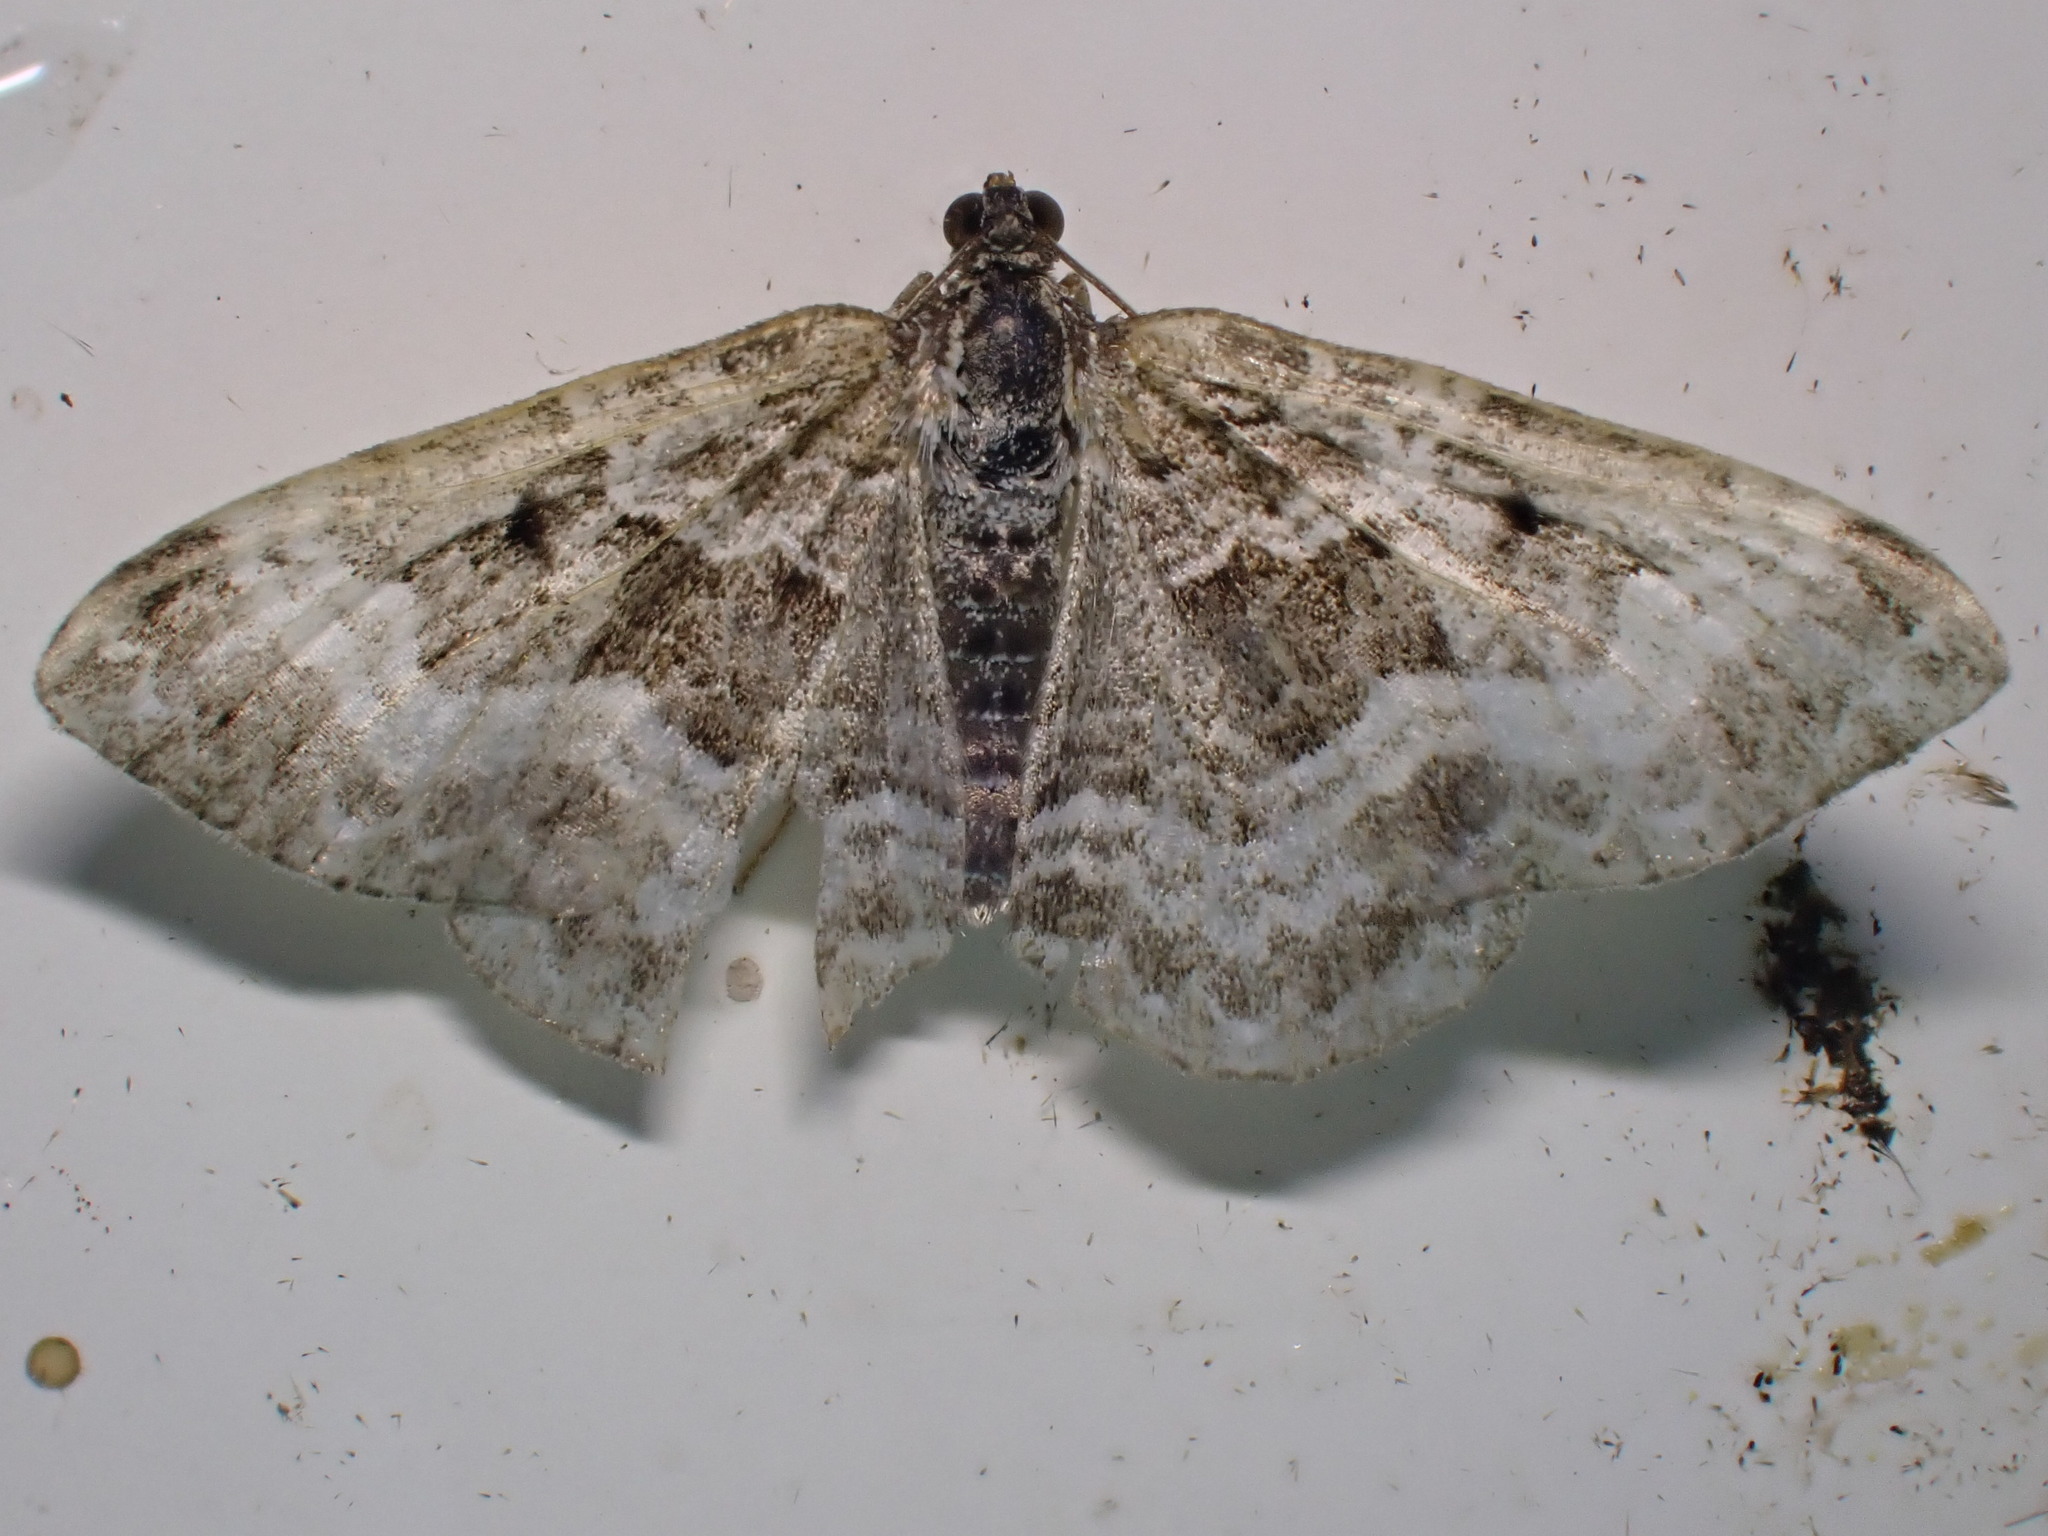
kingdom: Animalia
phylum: Arthropoda
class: Insecta
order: Lepidoptera
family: Geometridae
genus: Epirrhoe
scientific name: Epirrhoe alternata
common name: Common carpet
